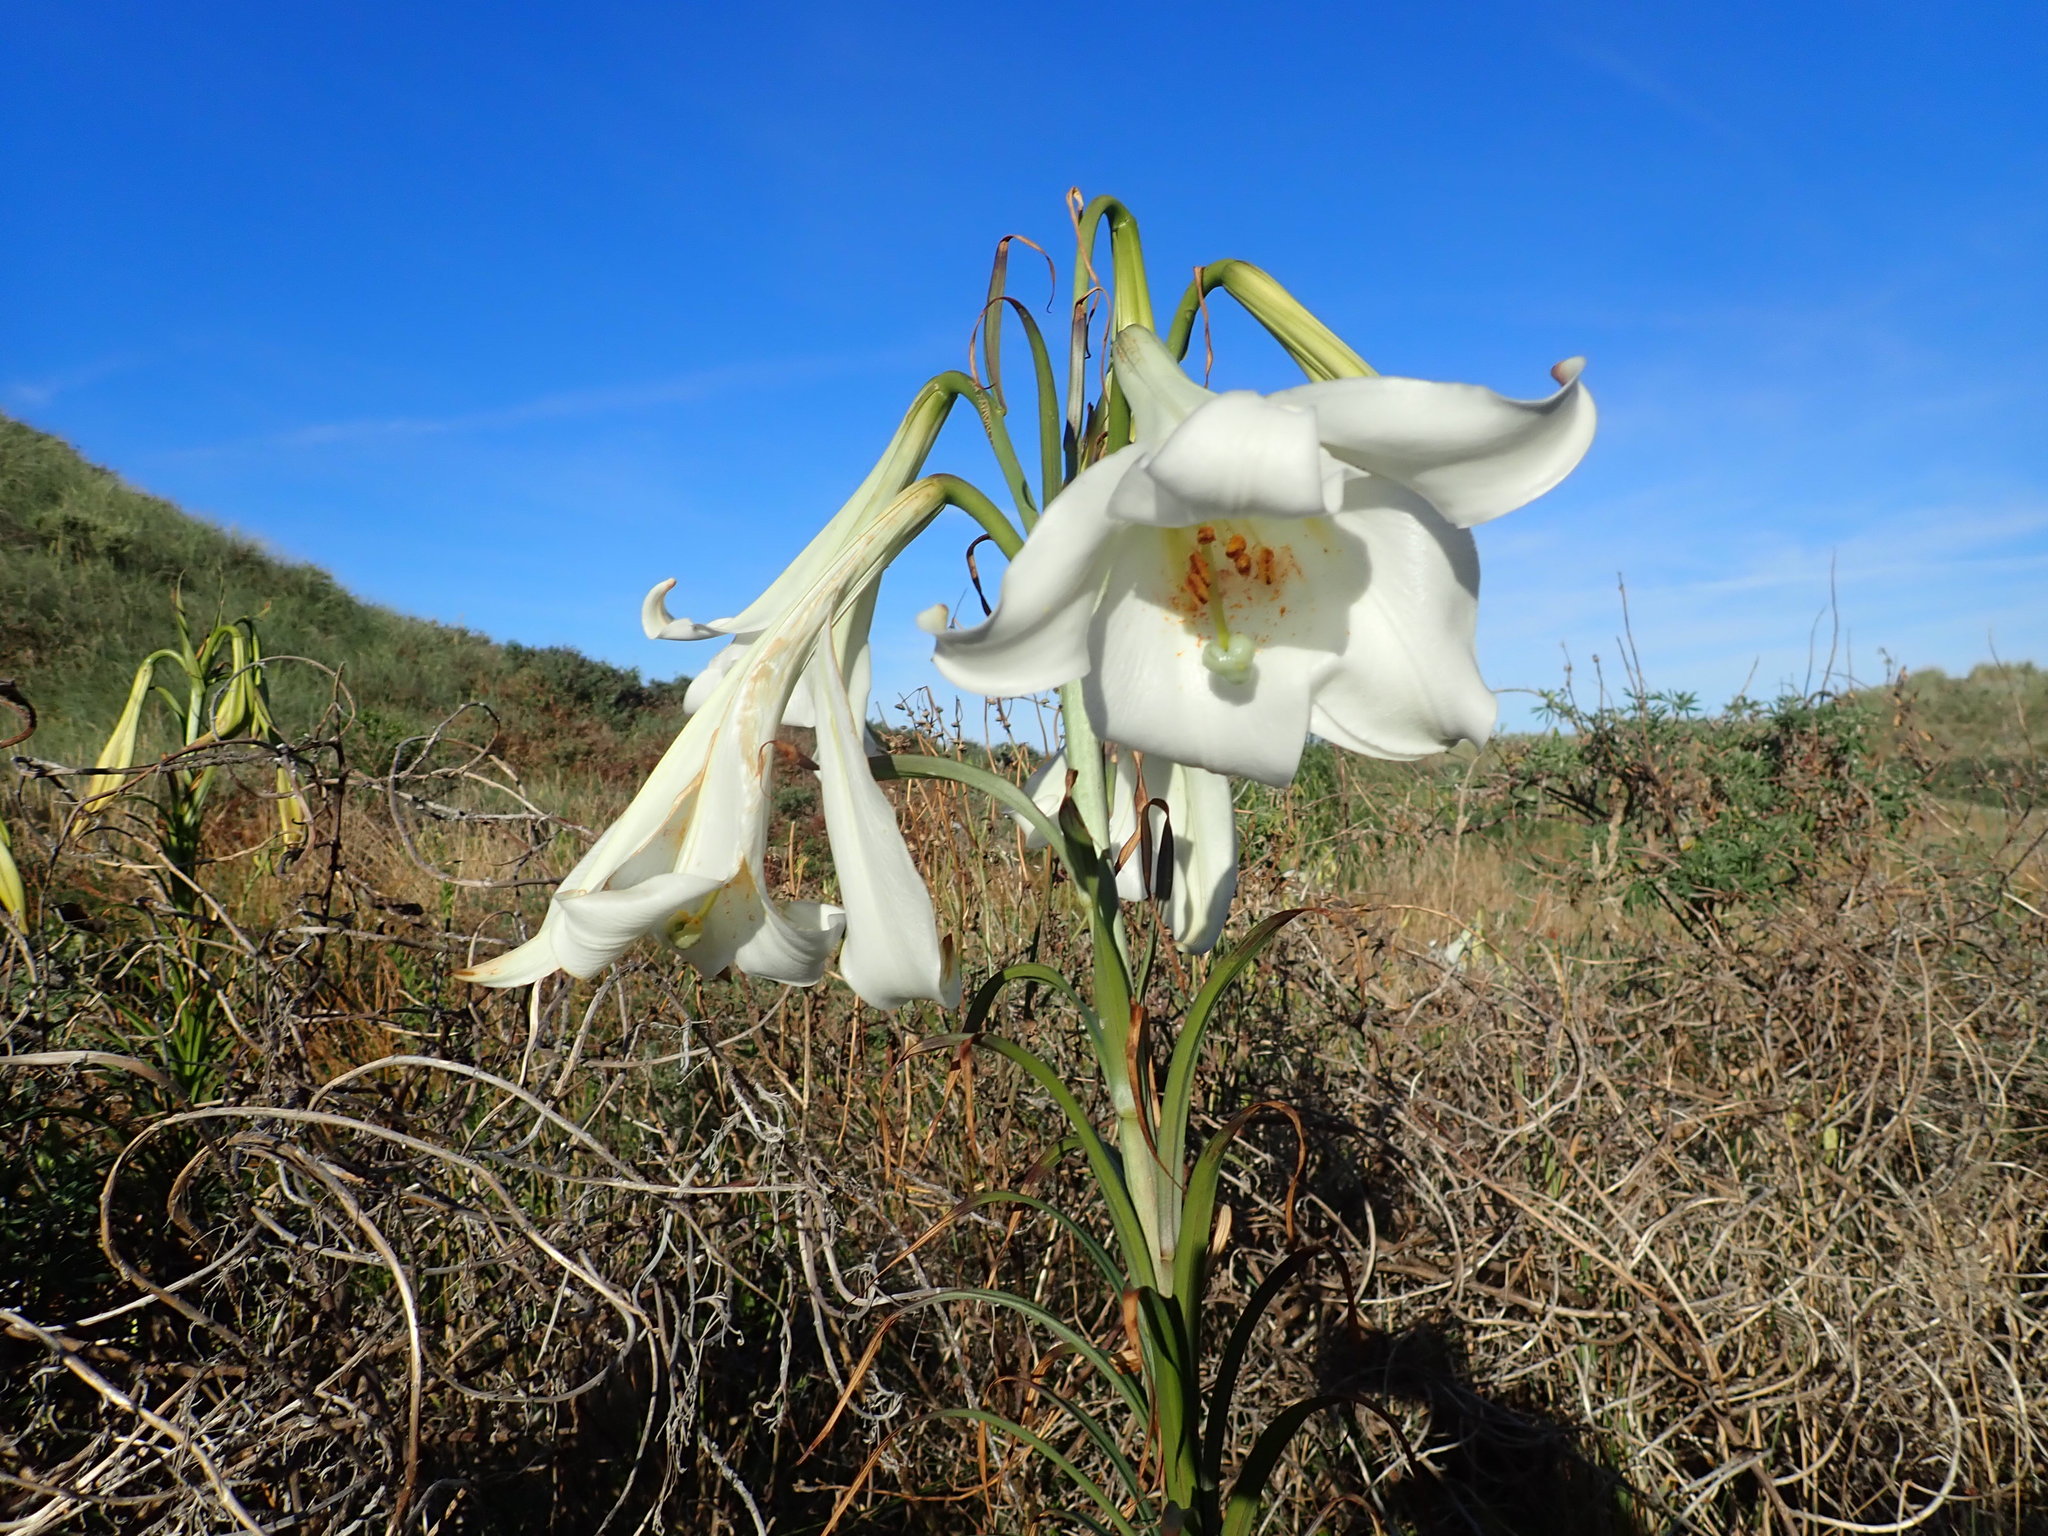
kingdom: Plantae
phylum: Tracheophyta
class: Liliopsida
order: Liliales
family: Liliaceae
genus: Lilium
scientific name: Lilium formosanum
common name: Formosa lily
